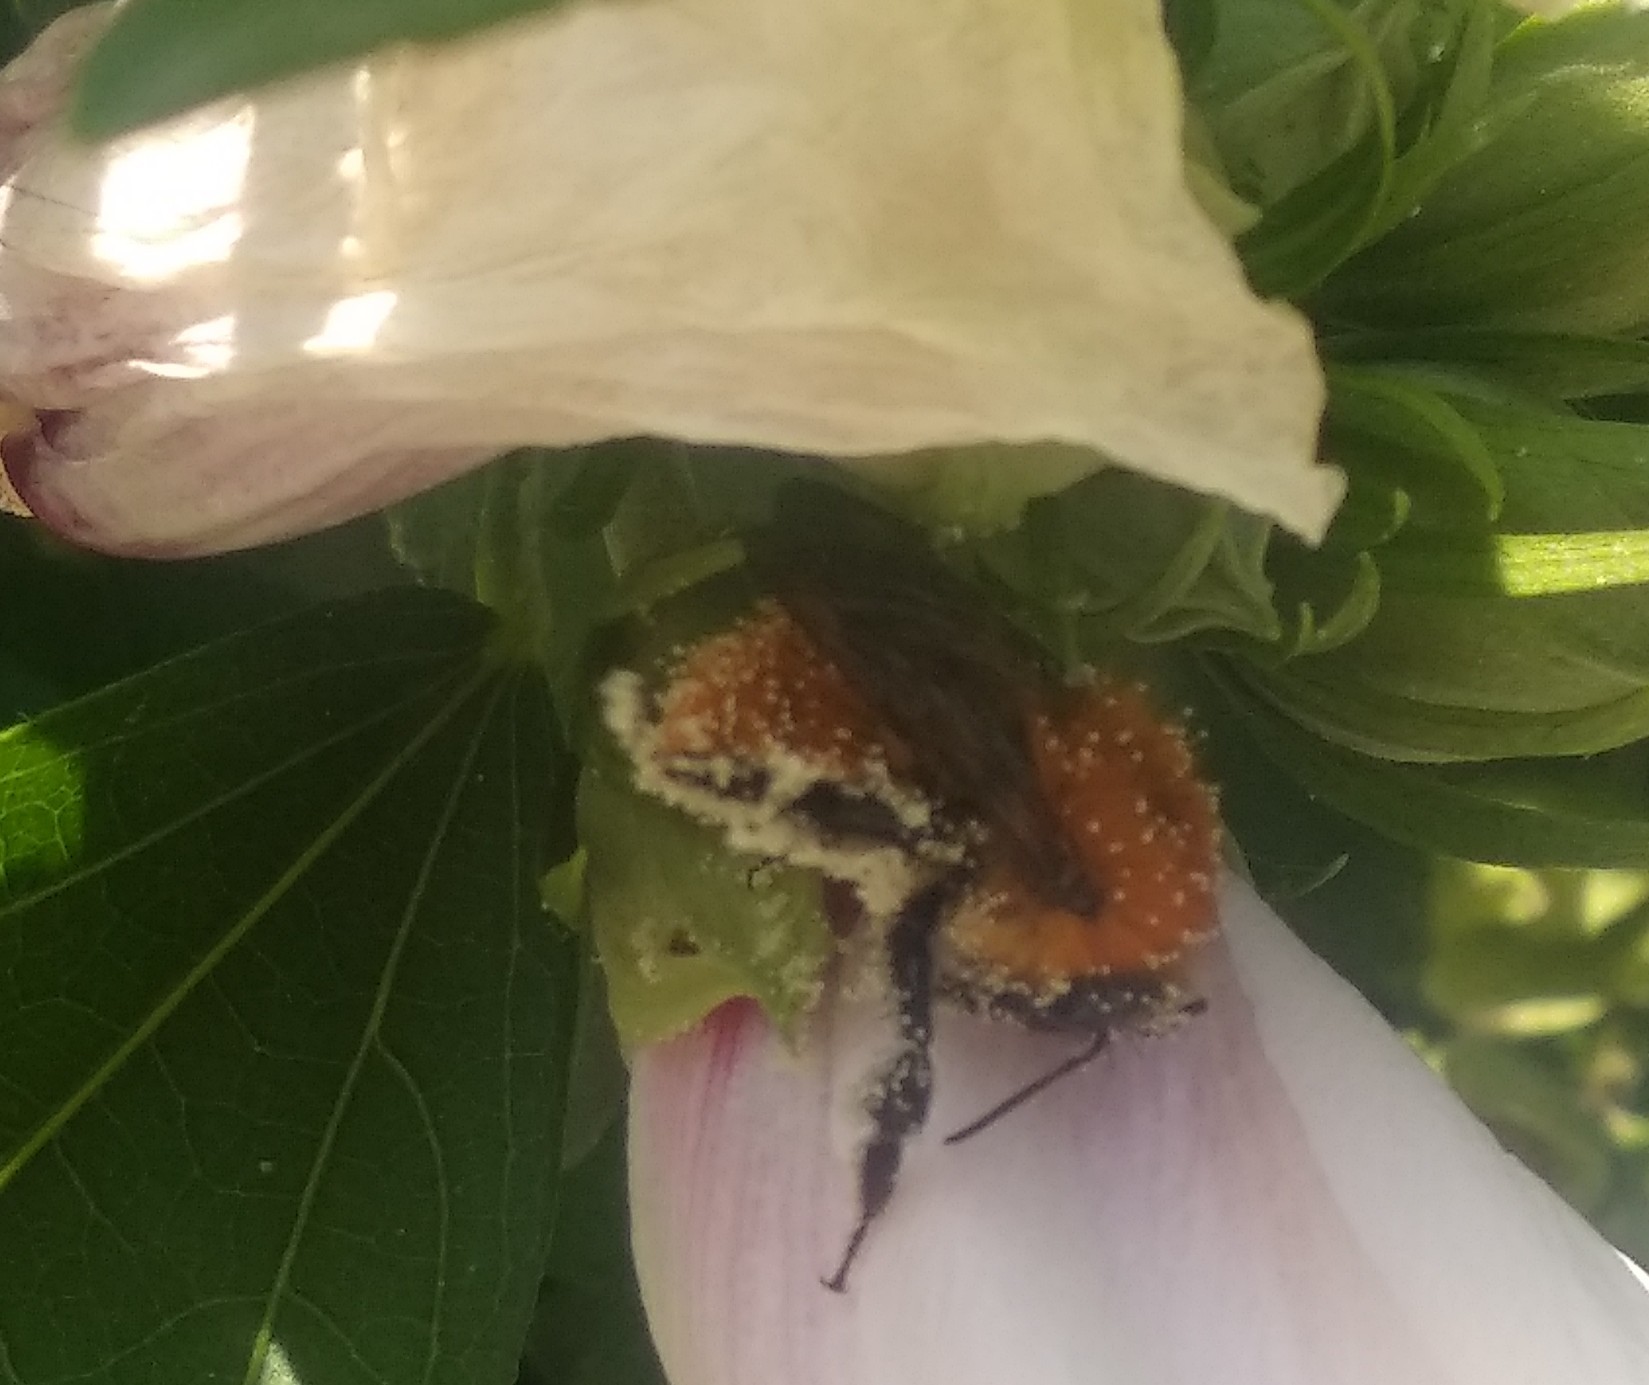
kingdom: Animalia
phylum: Arthropoda
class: Insecta
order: Hymenoptera
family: Apidae
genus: Bombus
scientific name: Bombus pascuorum
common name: Common carder bee
